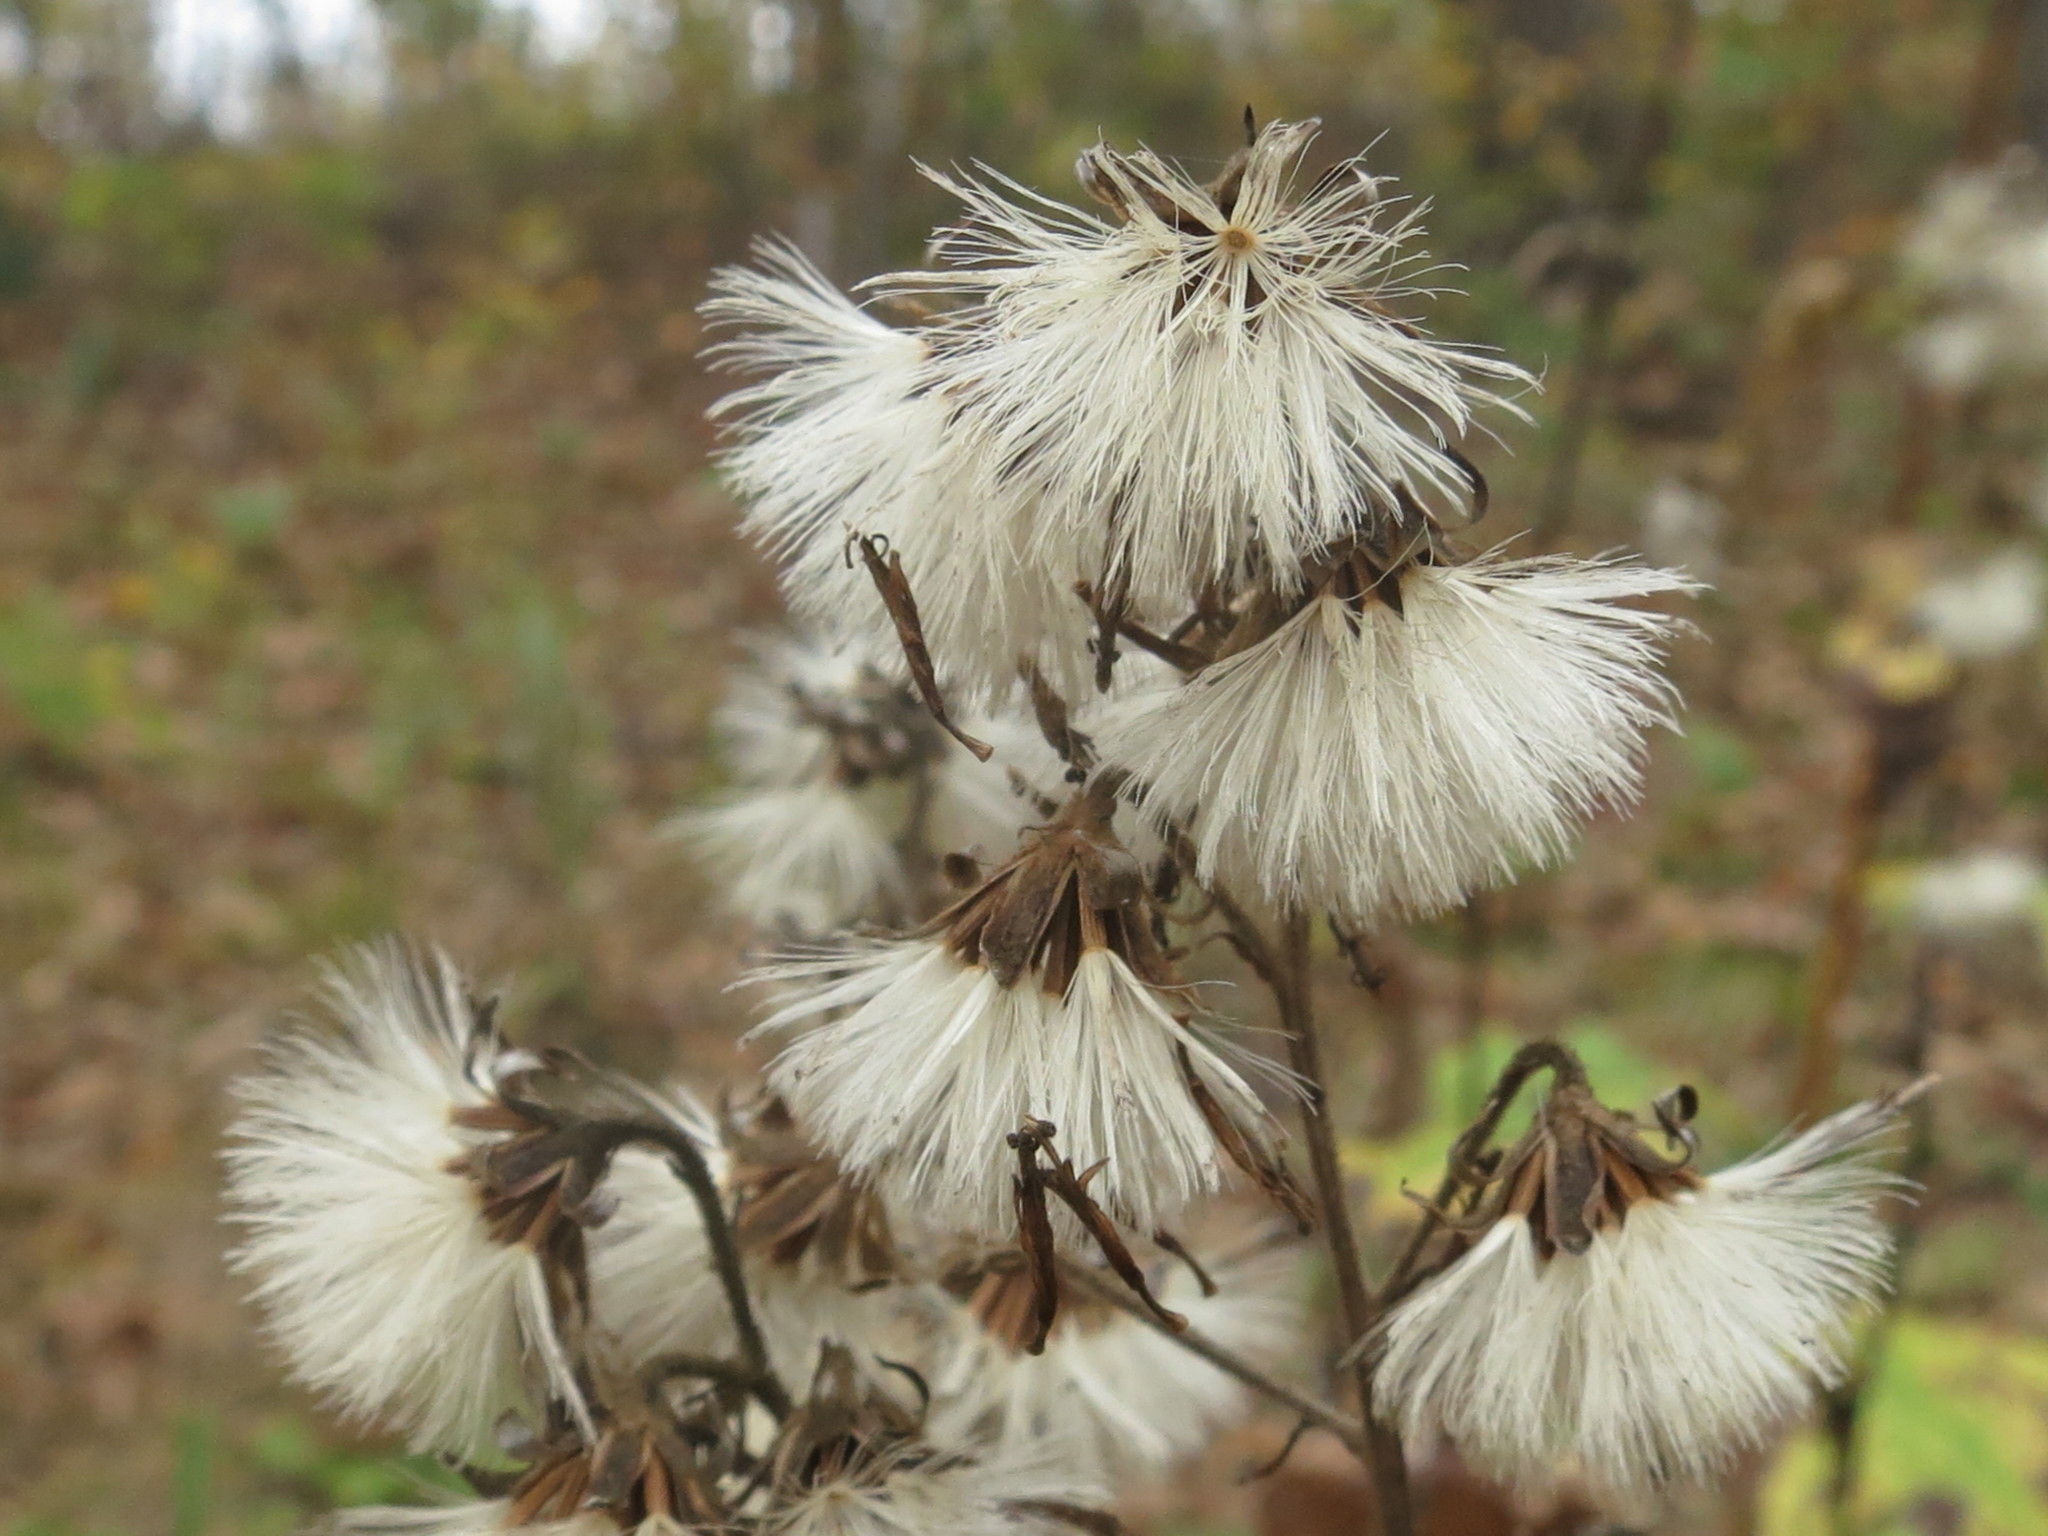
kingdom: Plantae
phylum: Tracheophyta
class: Magnoliopsida
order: Asterales
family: Asteraceae
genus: Parasenecio
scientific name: Parasenecio hastatus
